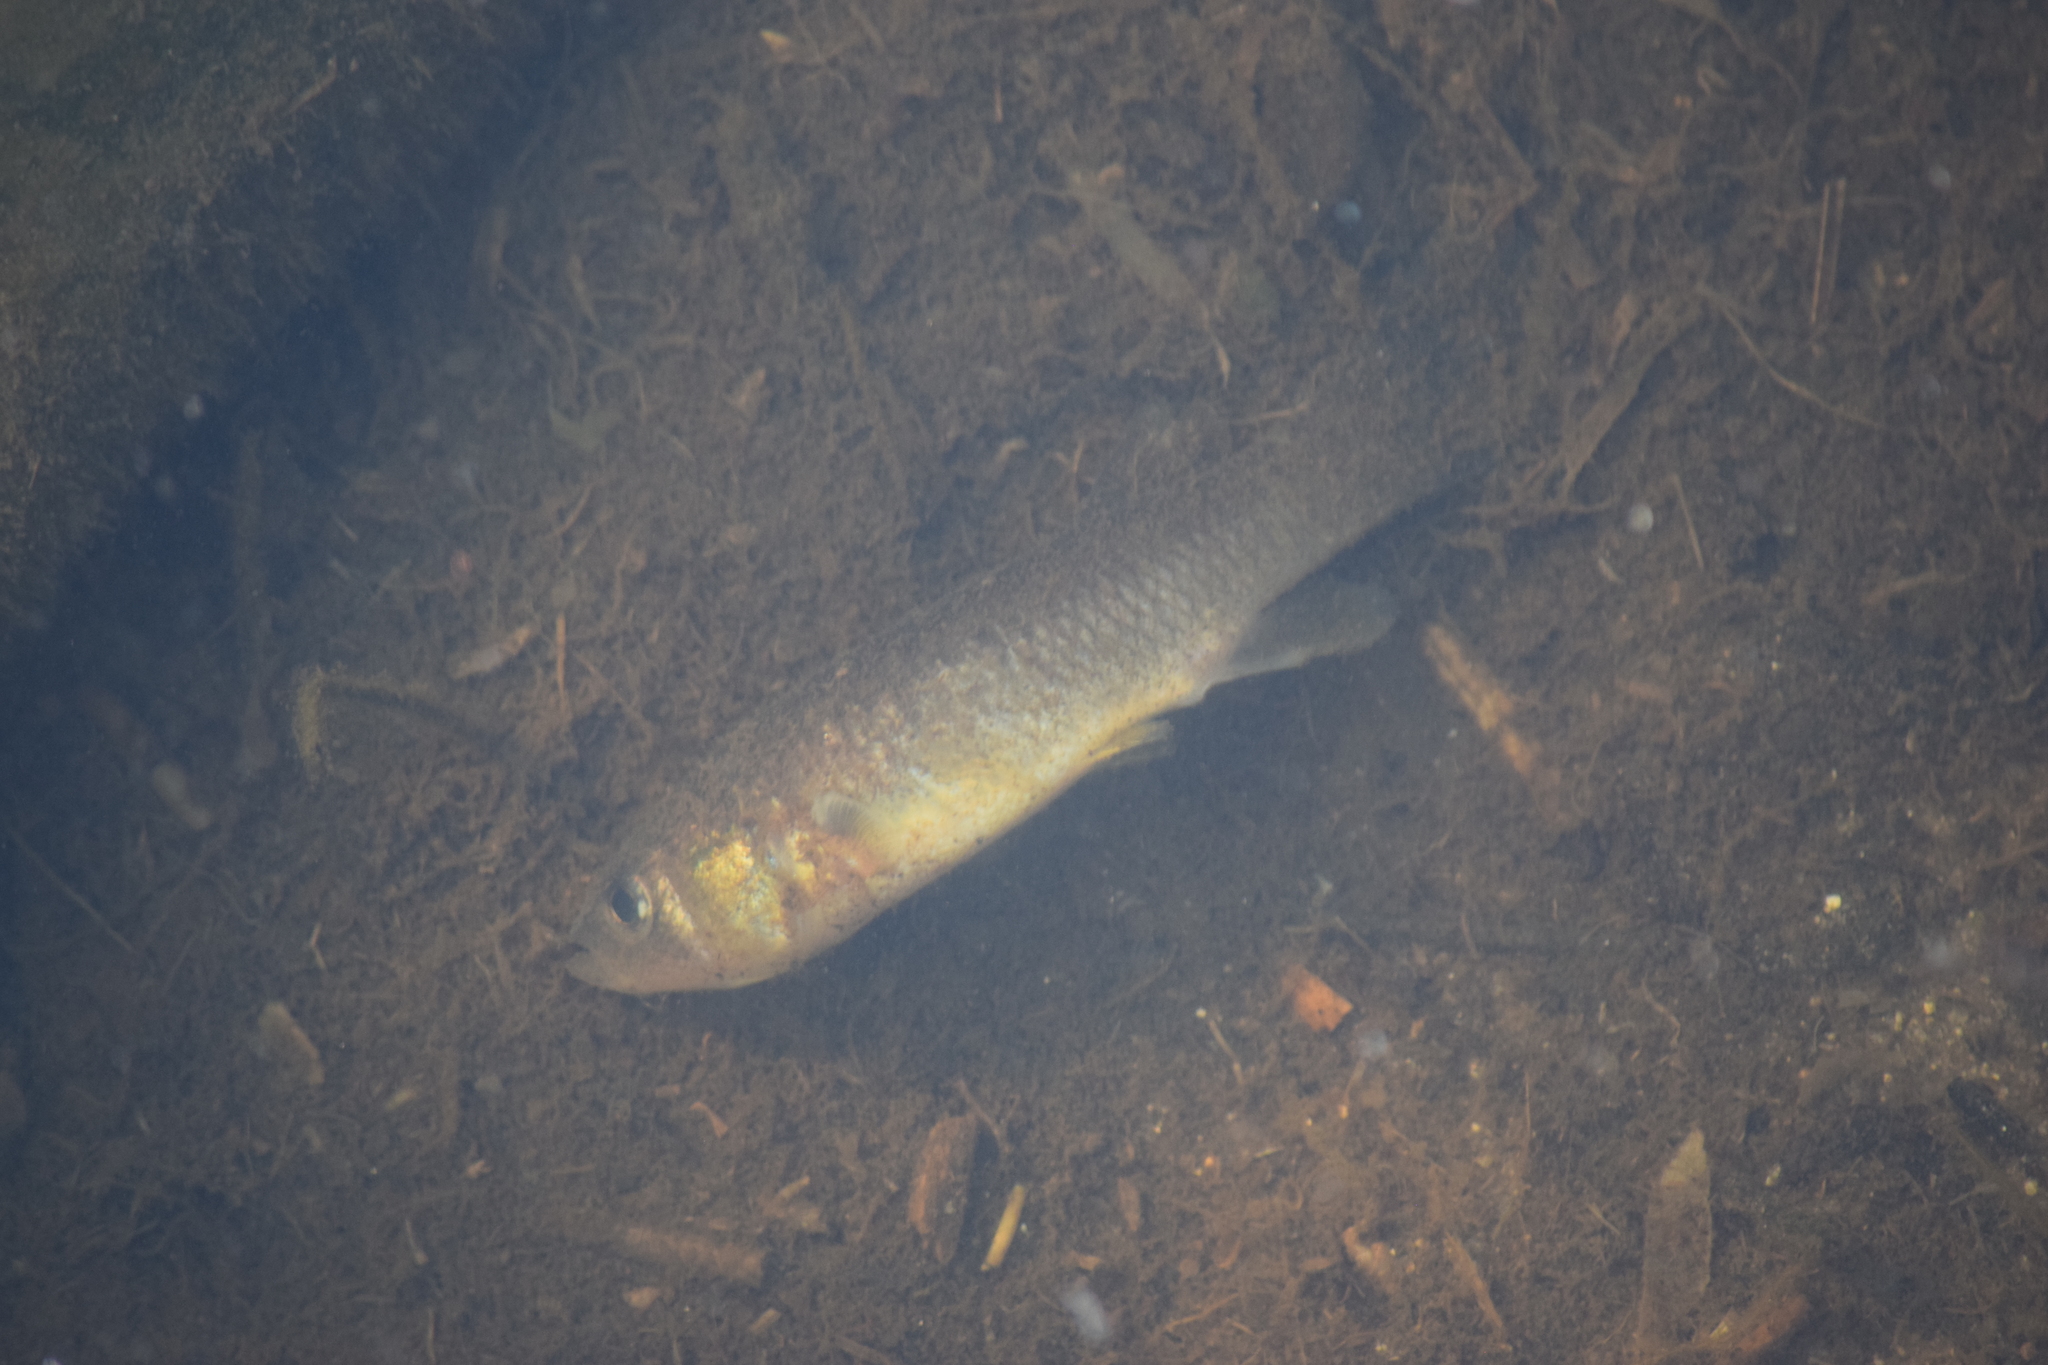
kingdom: Animalia
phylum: Chordata
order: Cyprinodontiformes
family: Fundulidae
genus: Fundulus
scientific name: Fundulus heteroclitus
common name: Mummichog
